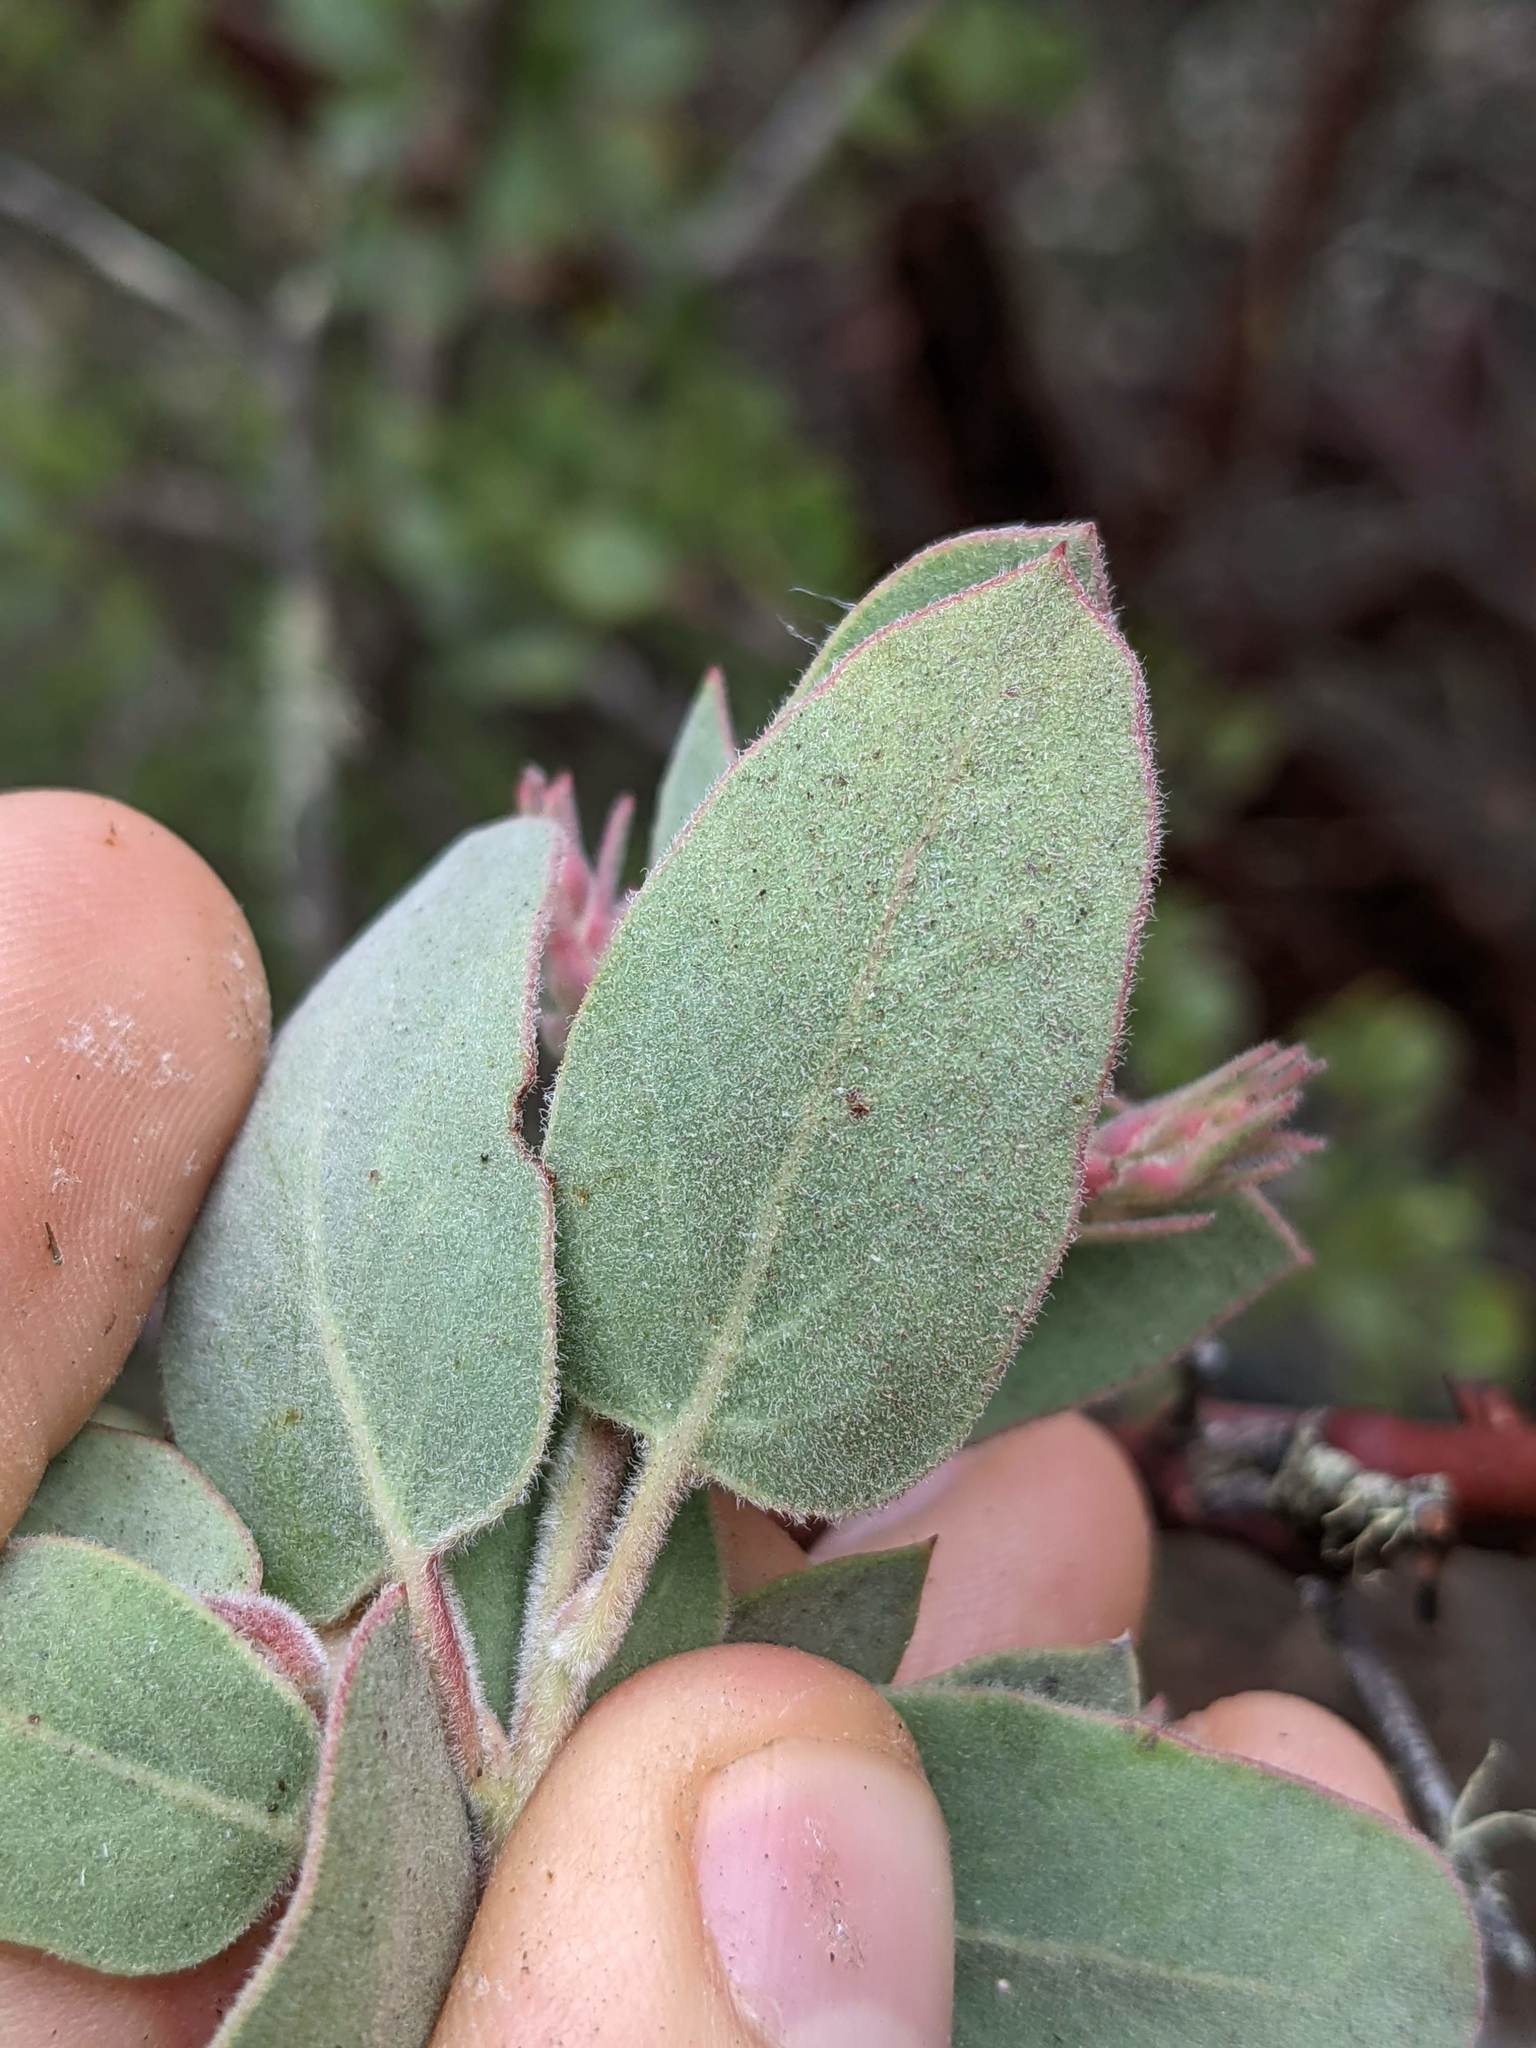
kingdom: Plantae
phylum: Tracheophyta
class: Magnoliopsida
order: Ericales
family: Ericaceae
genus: Arctostaphylos
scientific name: Arctostaphylos obispoensis
